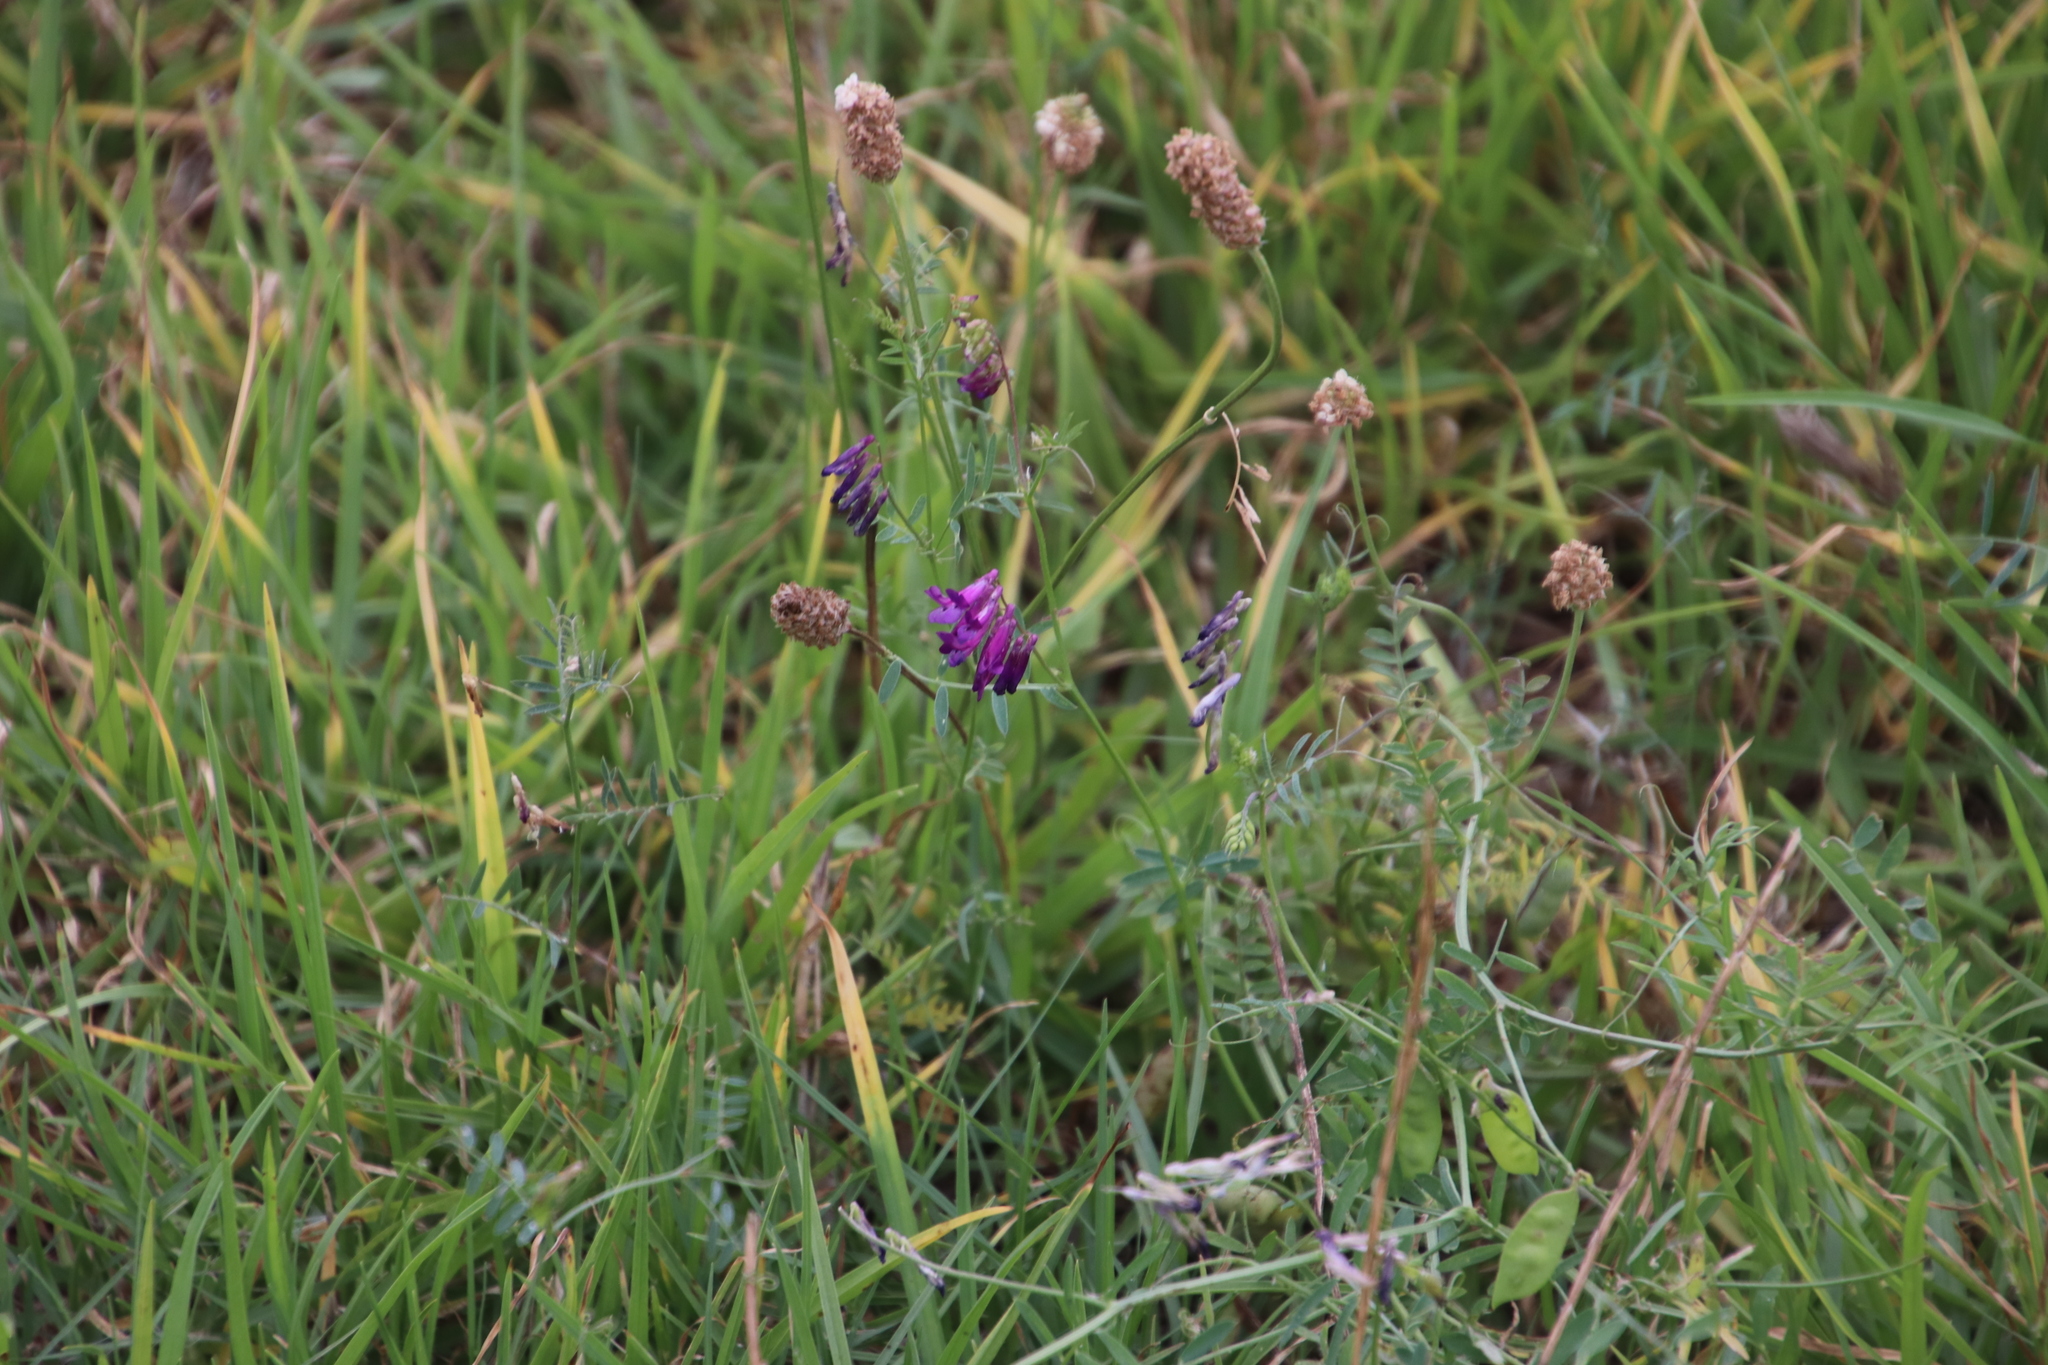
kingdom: Plantae
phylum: Tracheophyta
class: Magnoliopsida
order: Fabales
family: Fabaceae
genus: Vicia
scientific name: Vicia eriocarpa
